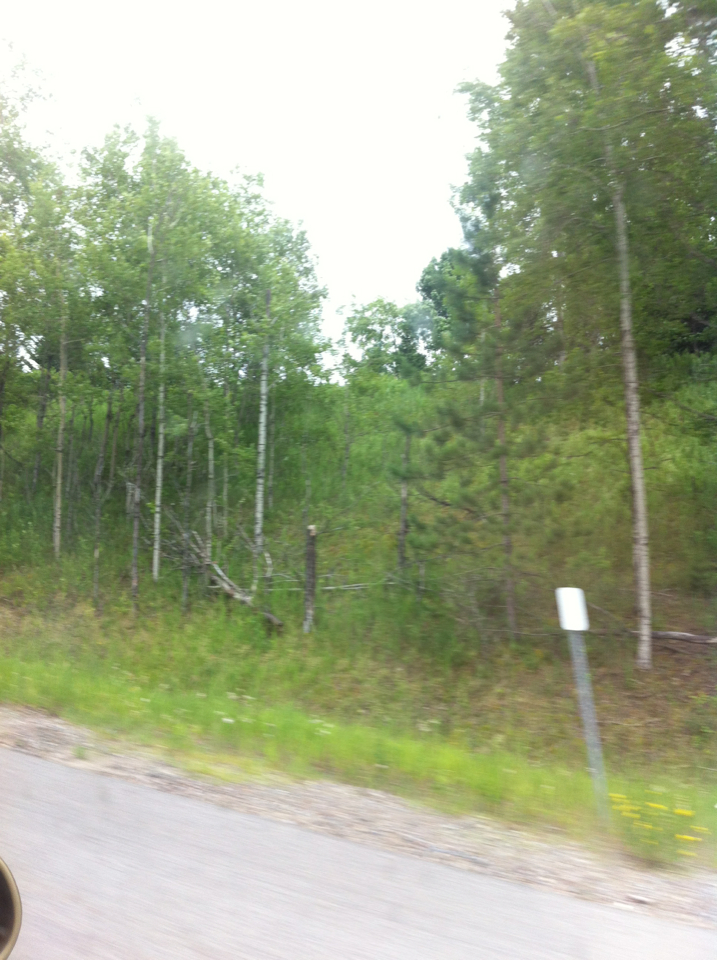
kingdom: Plantae
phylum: Tracheophyta
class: Magnoliopsida
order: Malpighiales
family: Salicaceae
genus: Populus
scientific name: Populus tremuloides
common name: Quaking aspen
